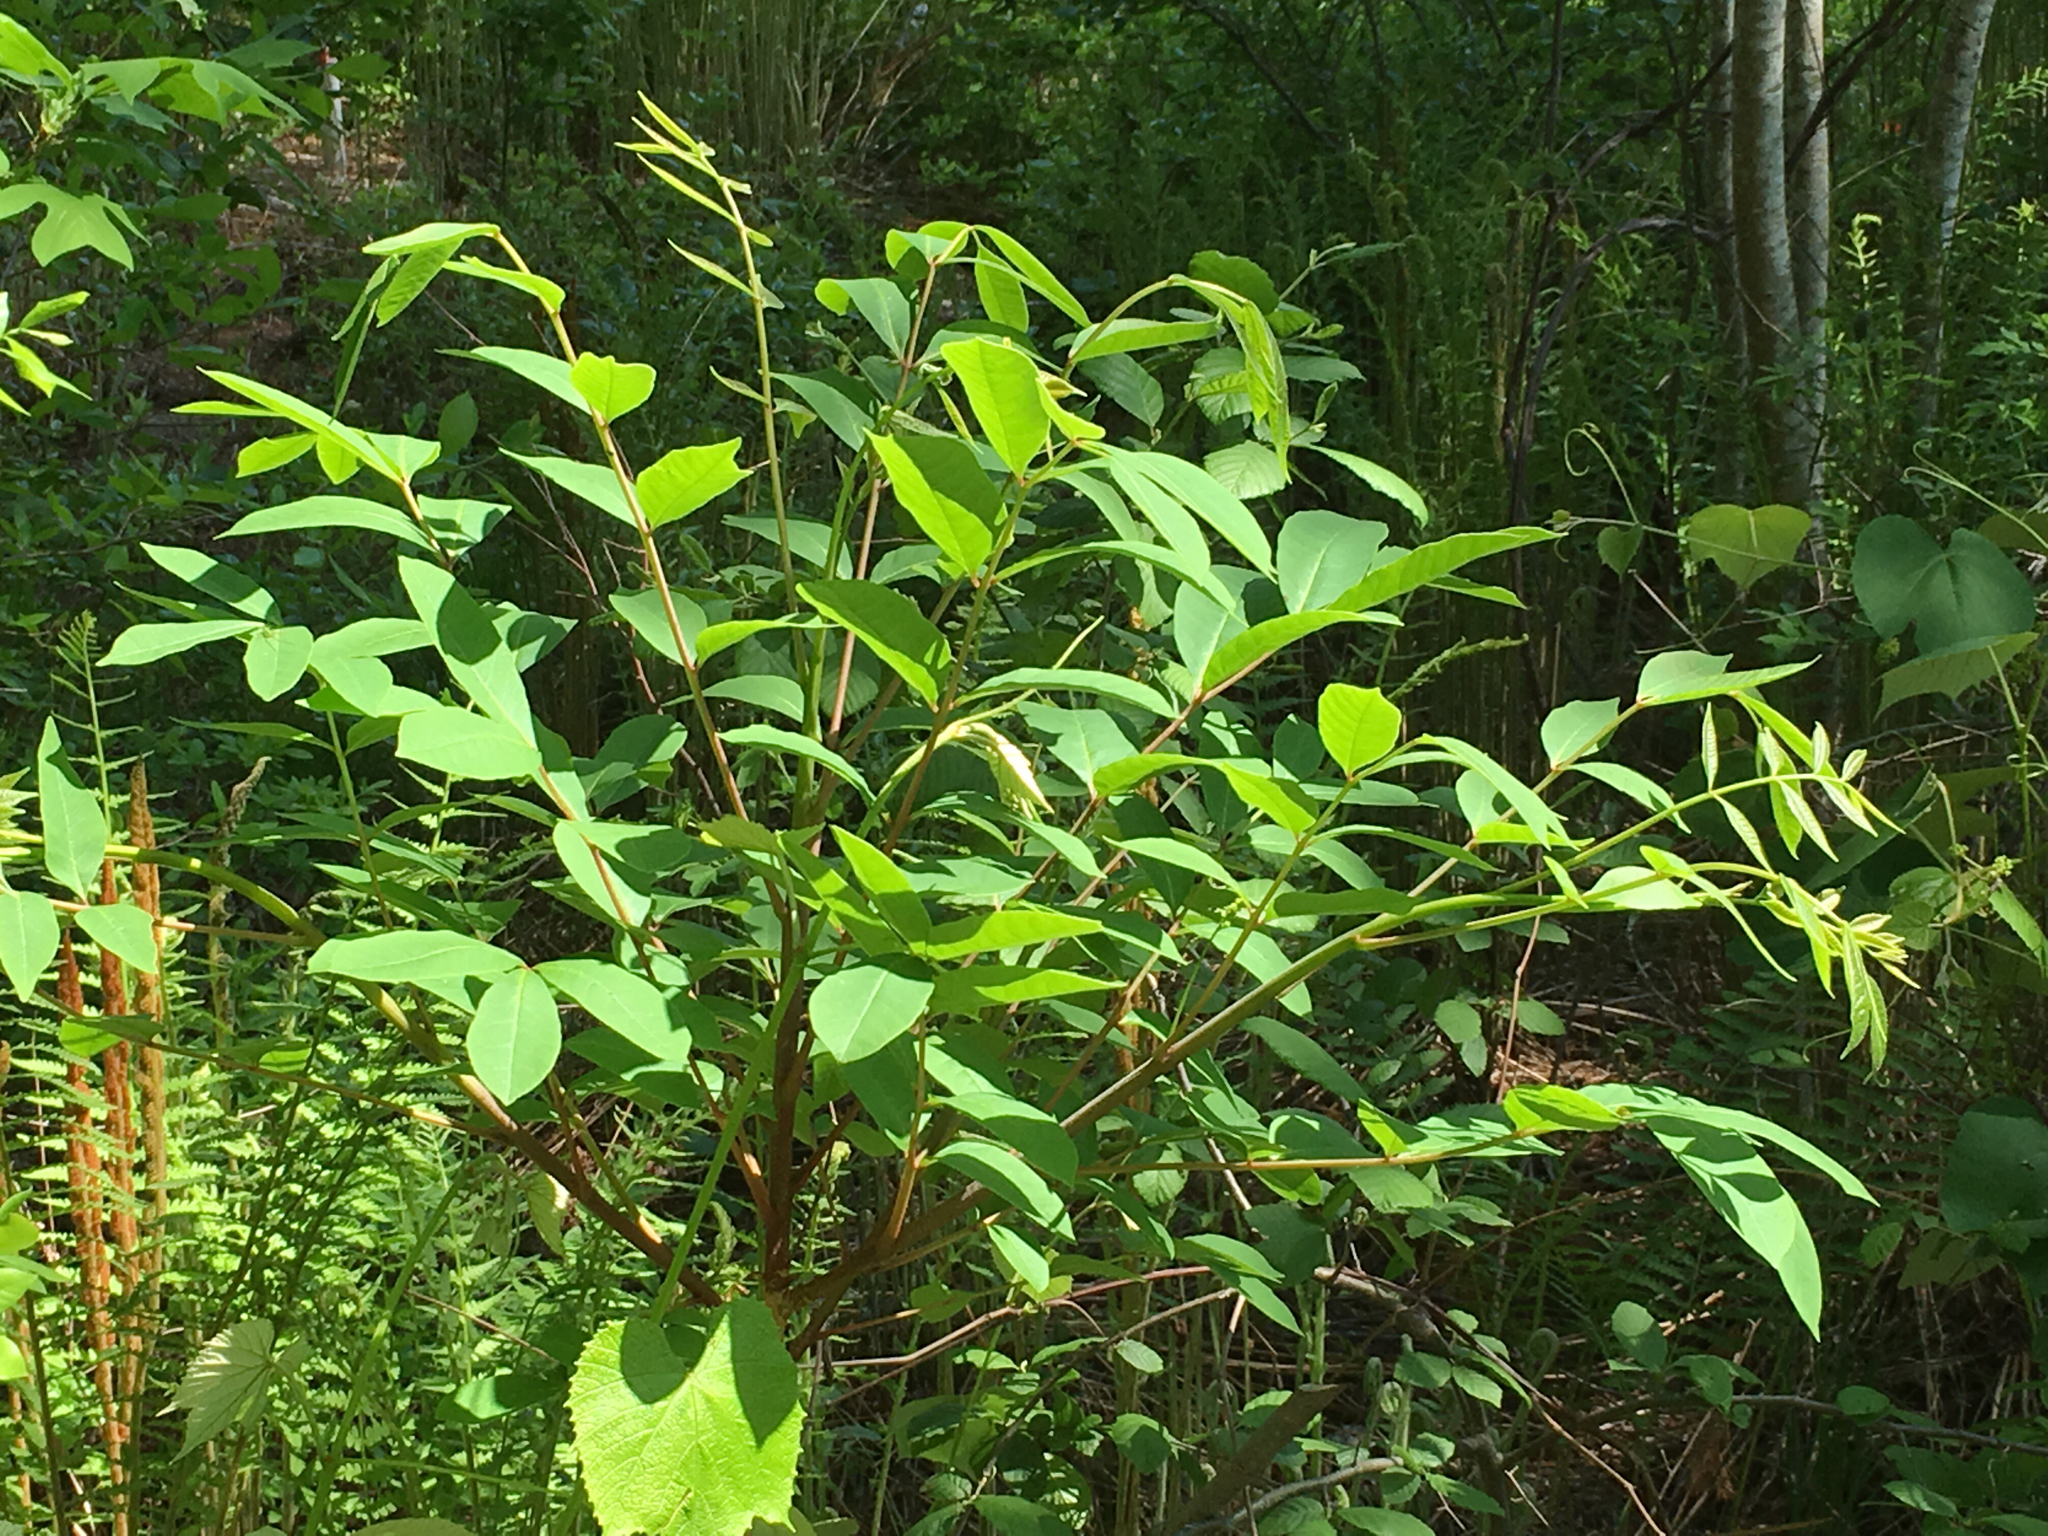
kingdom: Plantae
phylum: Tracheophyta
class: Magnoliopsida
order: Sapindales
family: Anacardiaceae
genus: Toxicodendron
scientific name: Toxicodendron vernix
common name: Poison sumac
